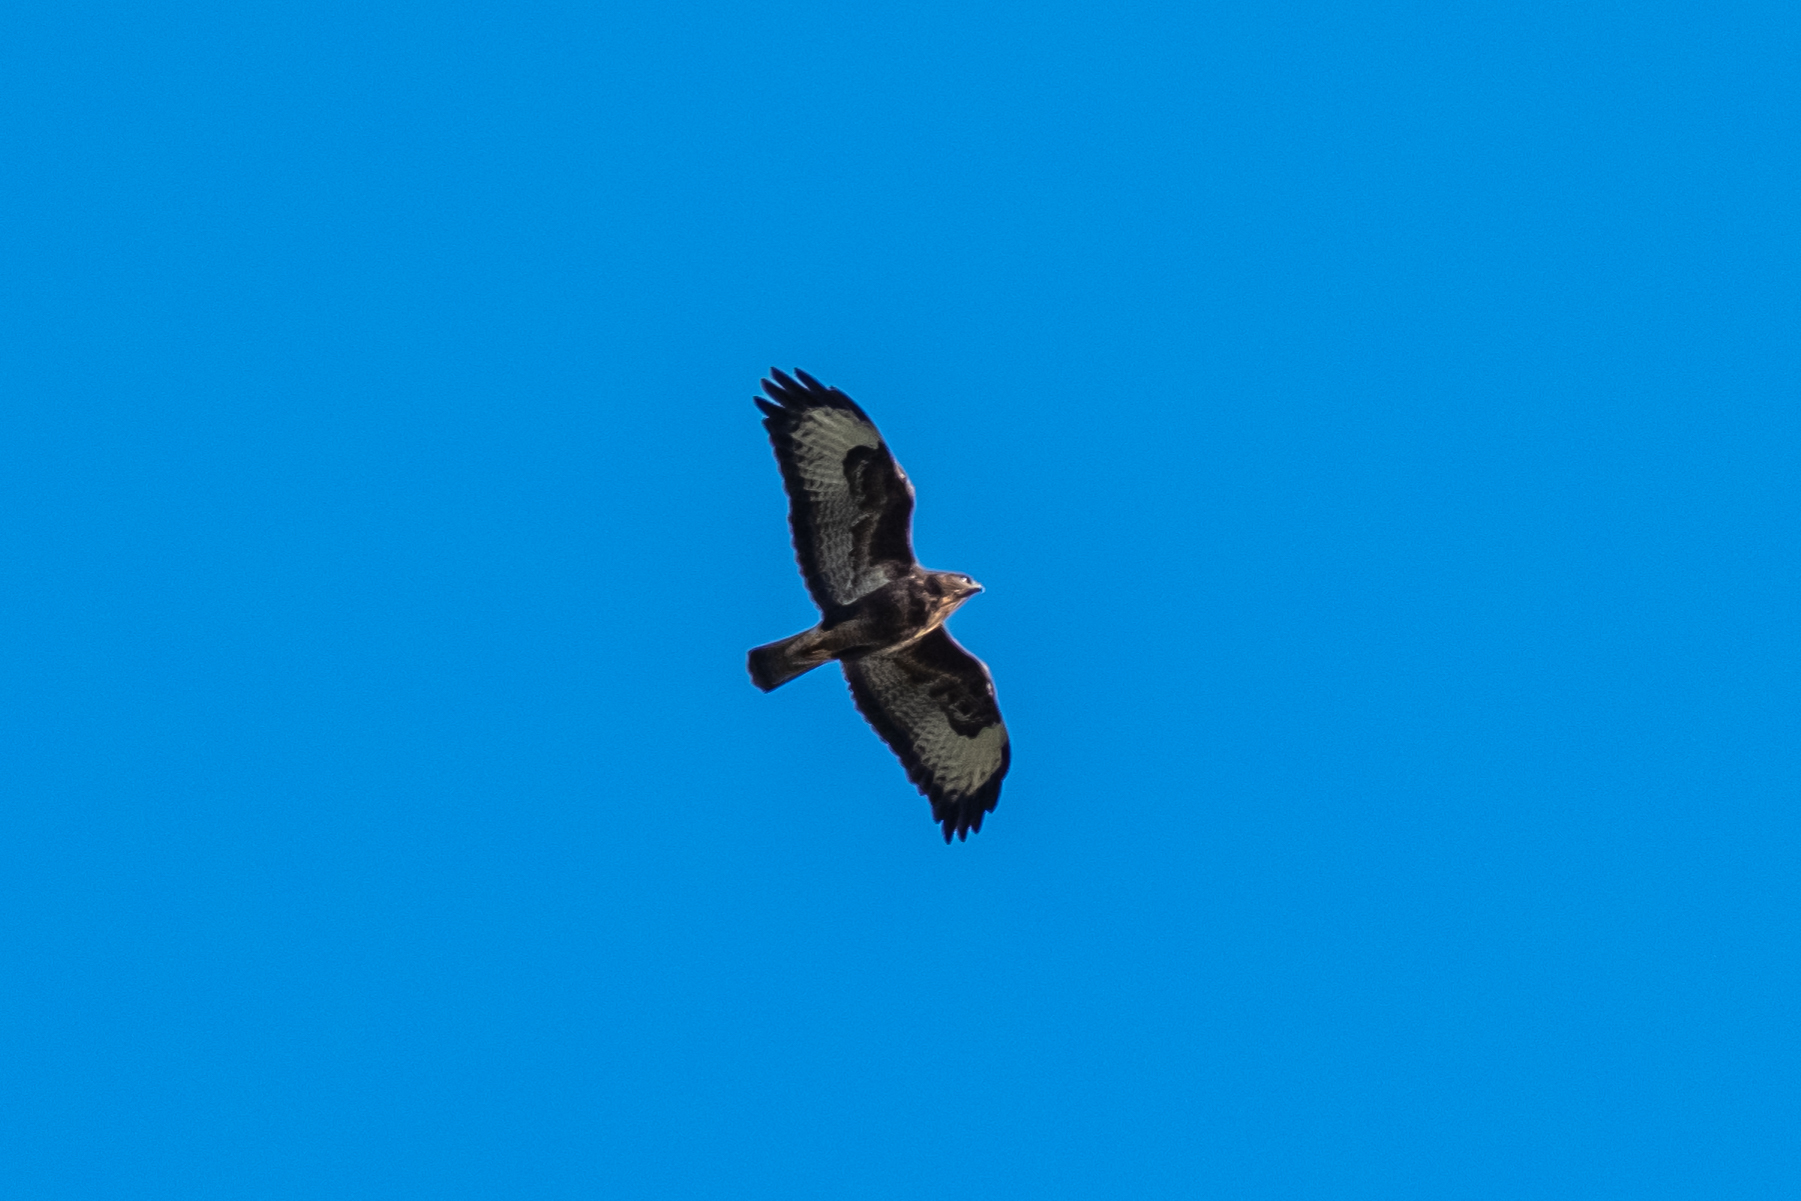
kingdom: Animalia
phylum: Chordata
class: Aves
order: Accipitriformes
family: Accipitridae
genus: Buteo
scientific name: Buteo buteo
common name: Common buzzard
